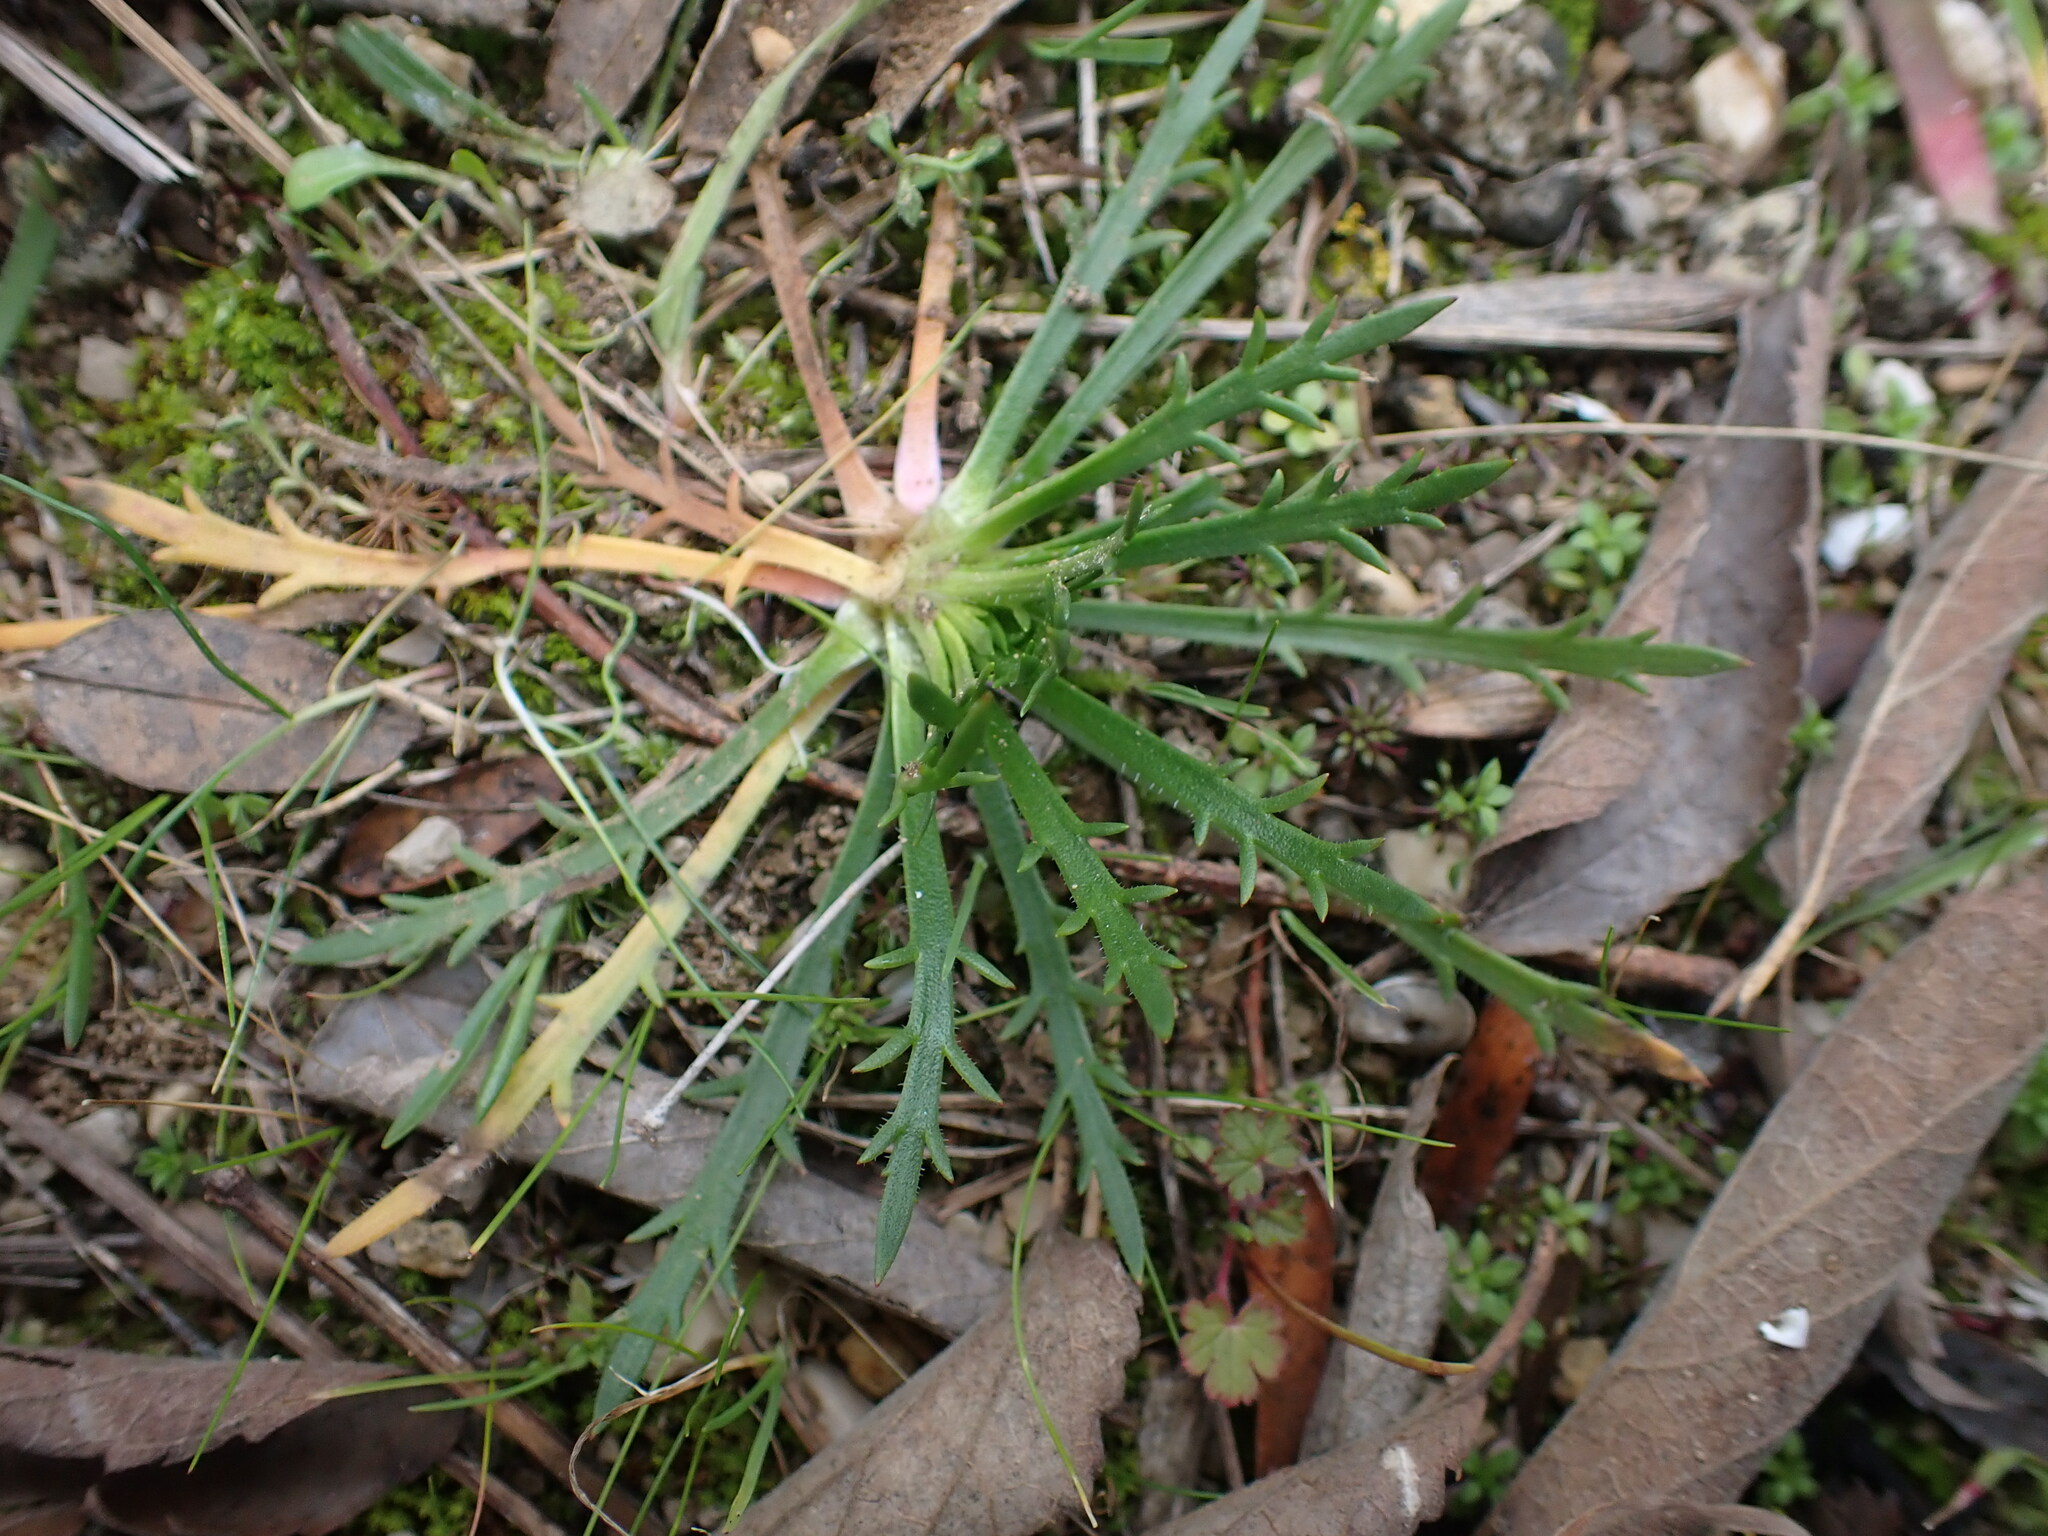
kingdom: Plantae
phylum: Tracheophyta
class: Magnoliopsida
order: Lamiales
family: Plantaginaceae
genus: Plantago
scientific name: Plantago coronopus
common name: Buck's-horn plantain
